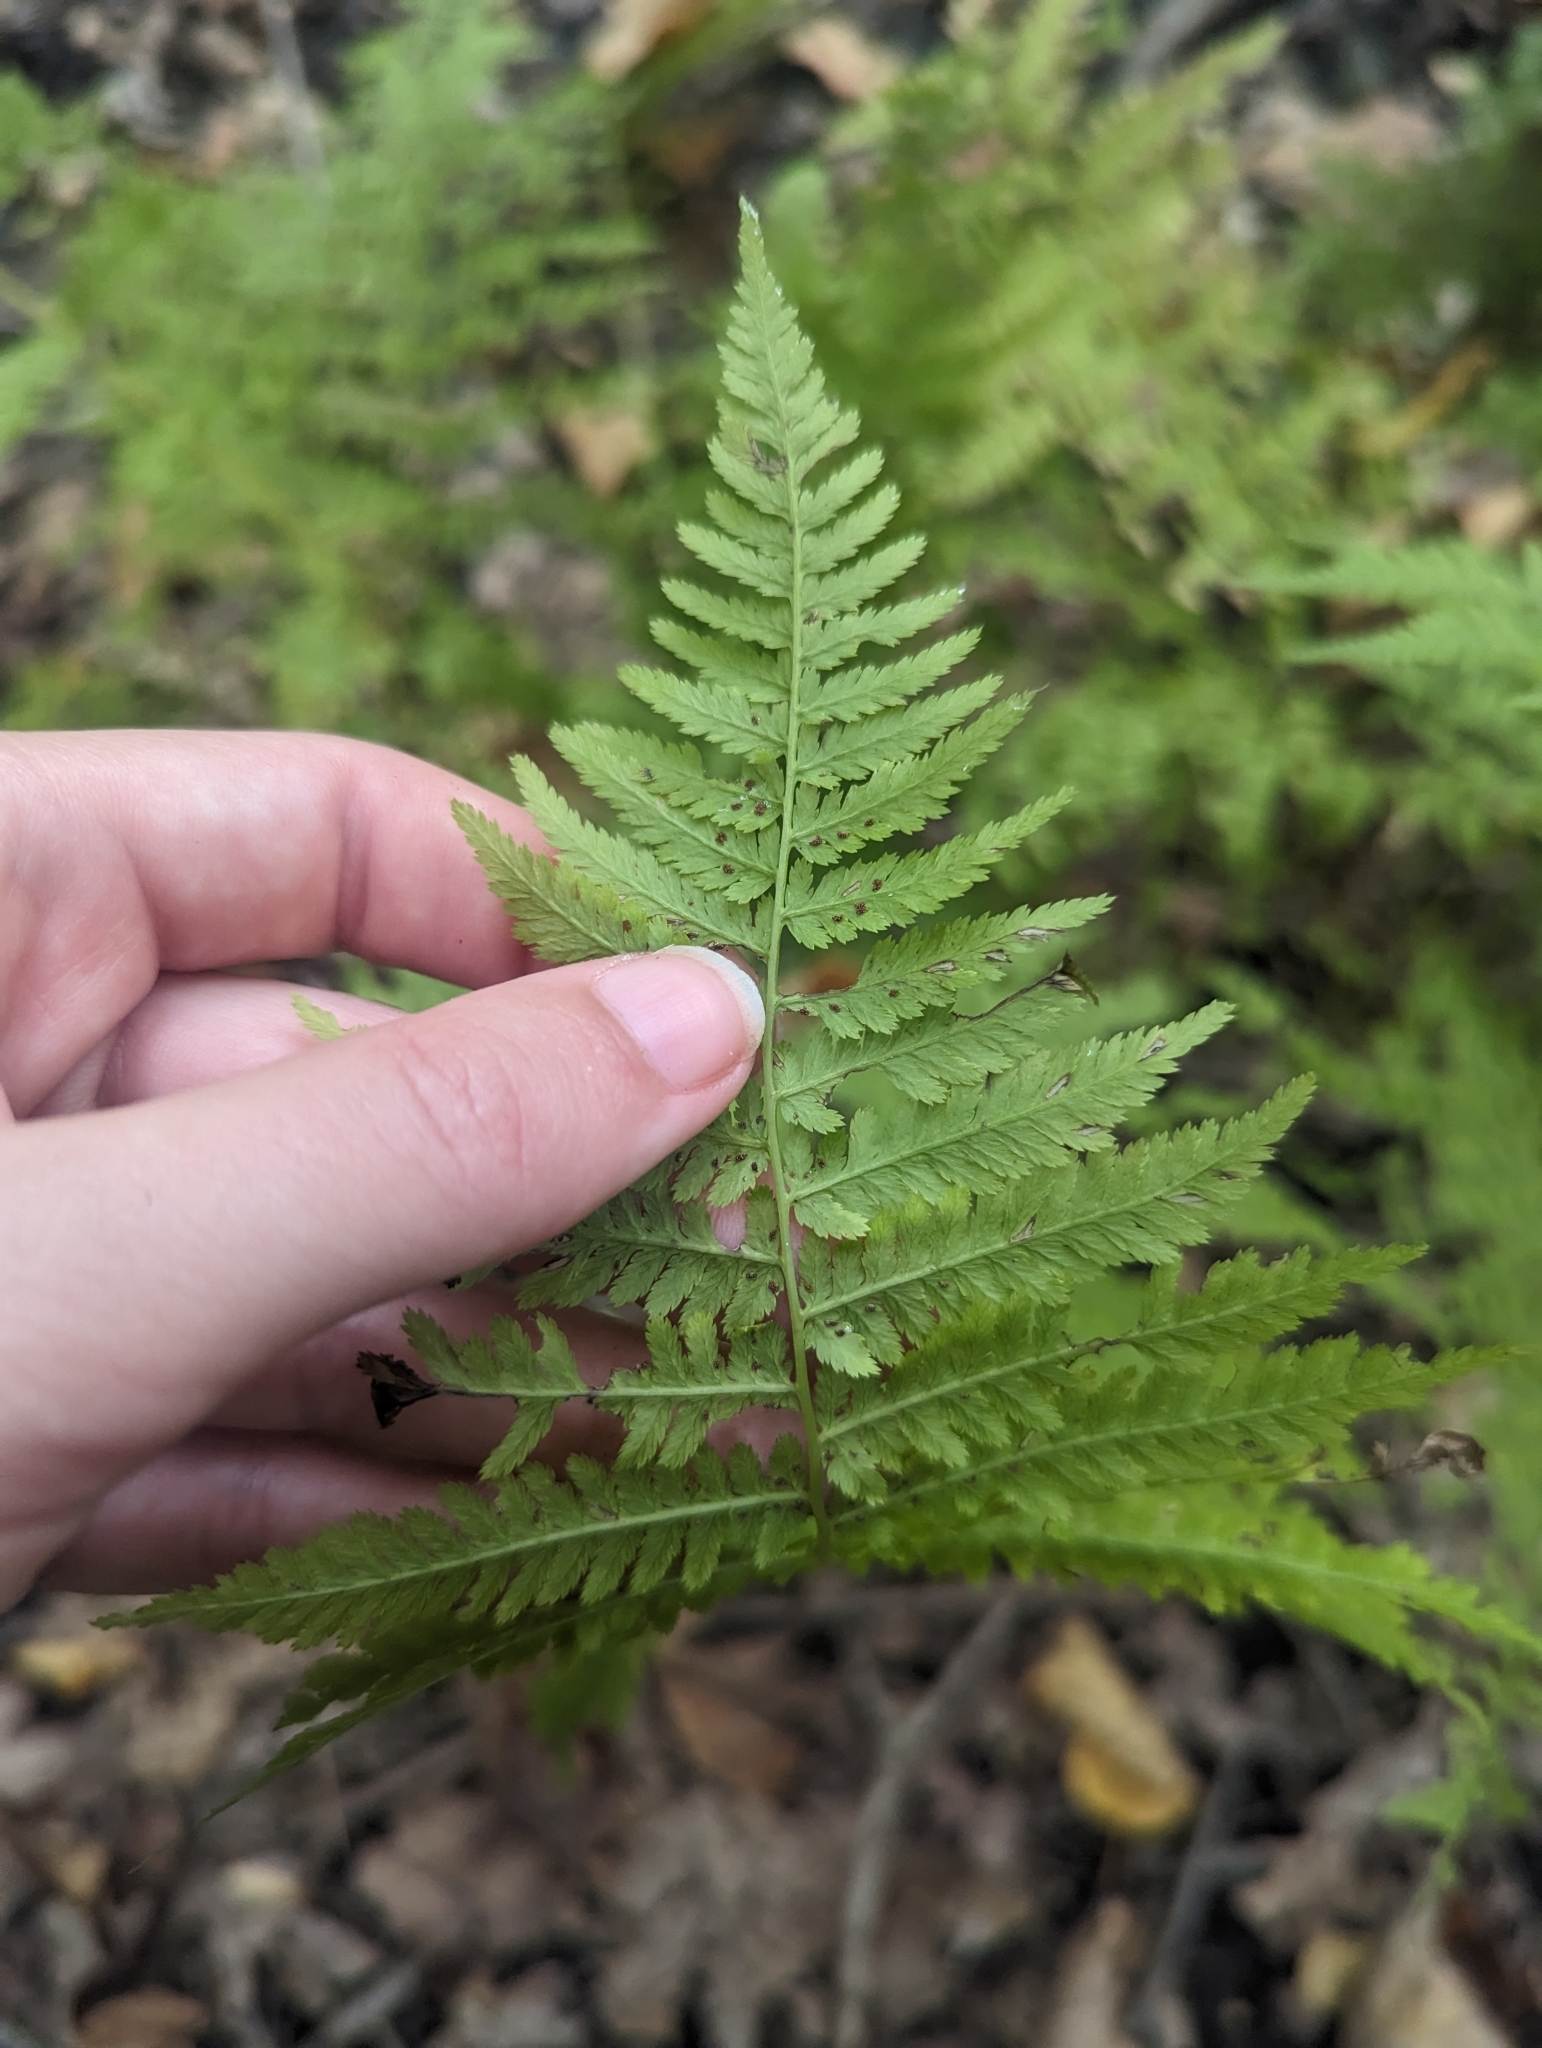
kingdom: Plantae
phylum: Tracheophyta
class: Polypodiopsida
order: Polypodiales
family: Athyriaceae
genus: Athyrium
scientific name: Athyrium angustum
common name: Northern lady fern
